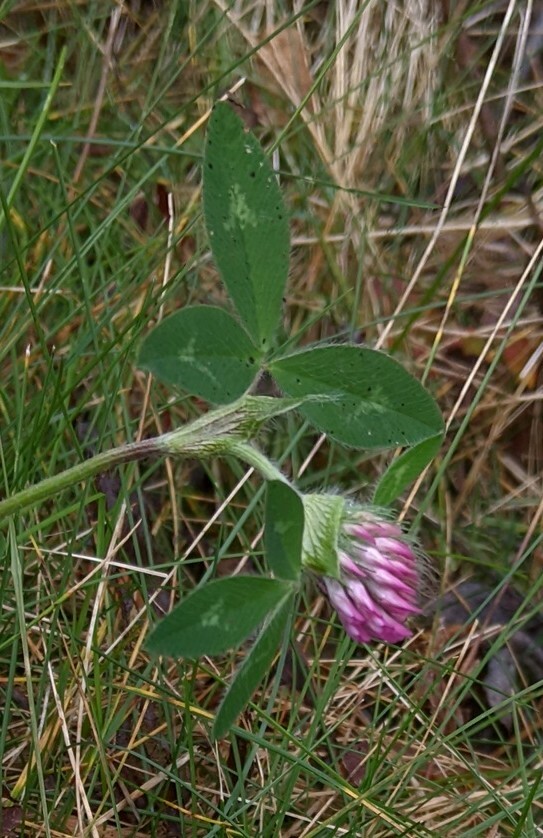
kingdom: Plantae
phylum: Tracheophyta
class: Magnoliopsida
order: Fabales
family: Fabaceae
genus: Trifolium
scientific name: Trifolium pratense
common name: Red clover
